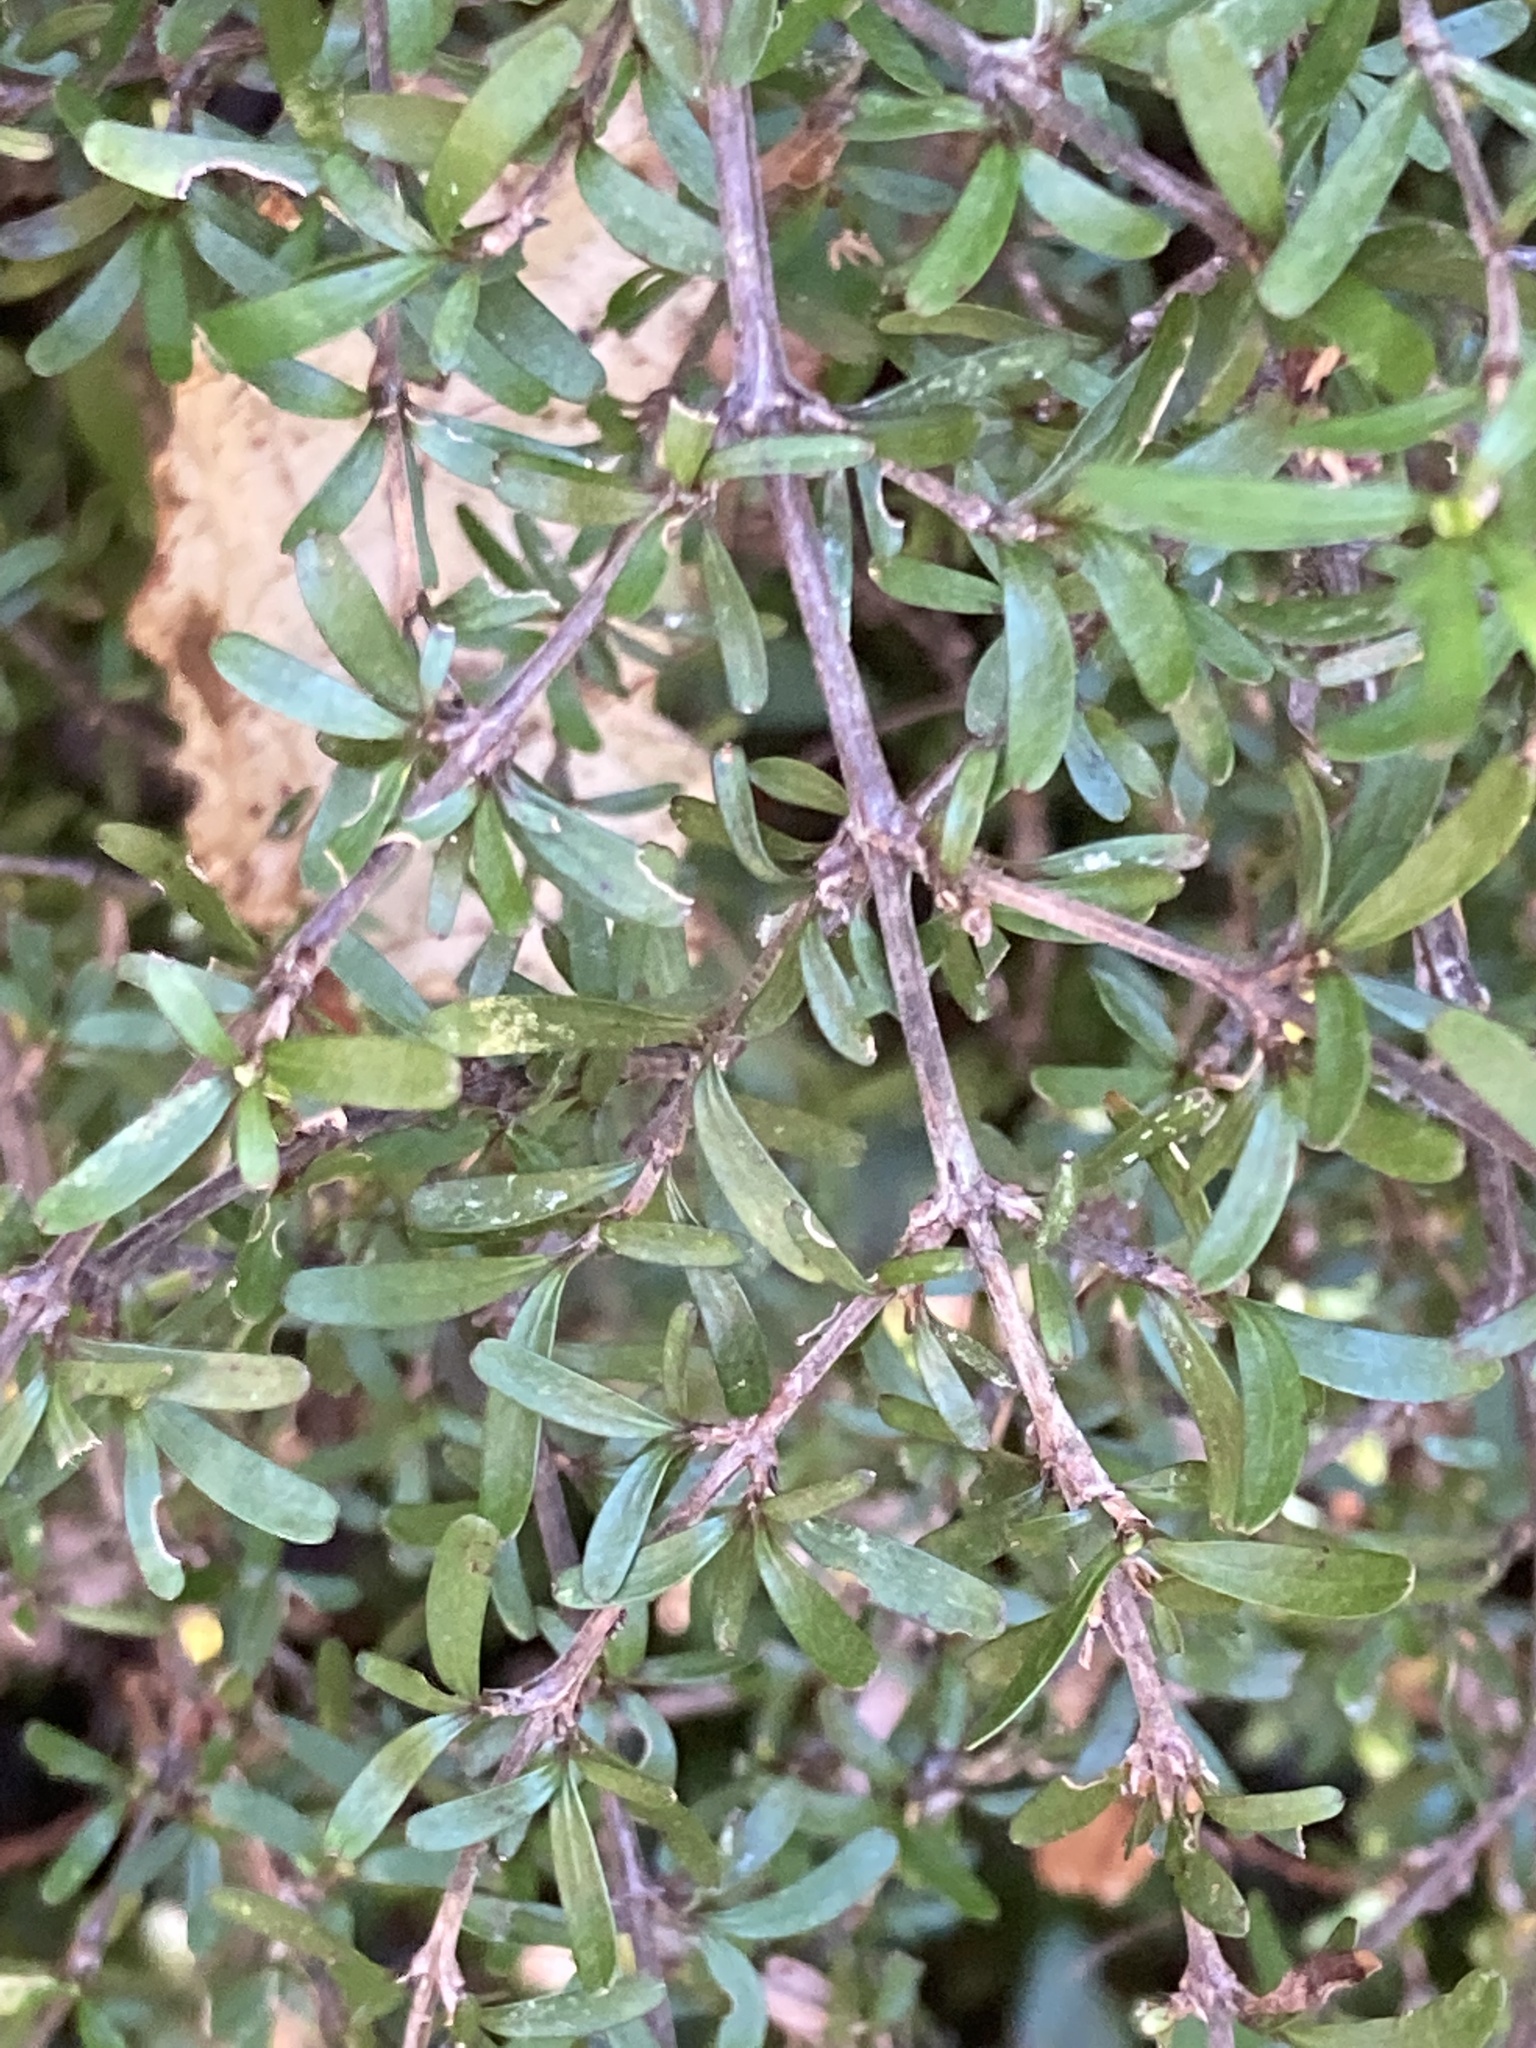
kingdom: Plantae
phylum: Tracheophyta
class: Magnoliopsida
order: Gentianales
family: Rubiaceae
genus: Coprosma
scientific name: Coprosma cuneata
